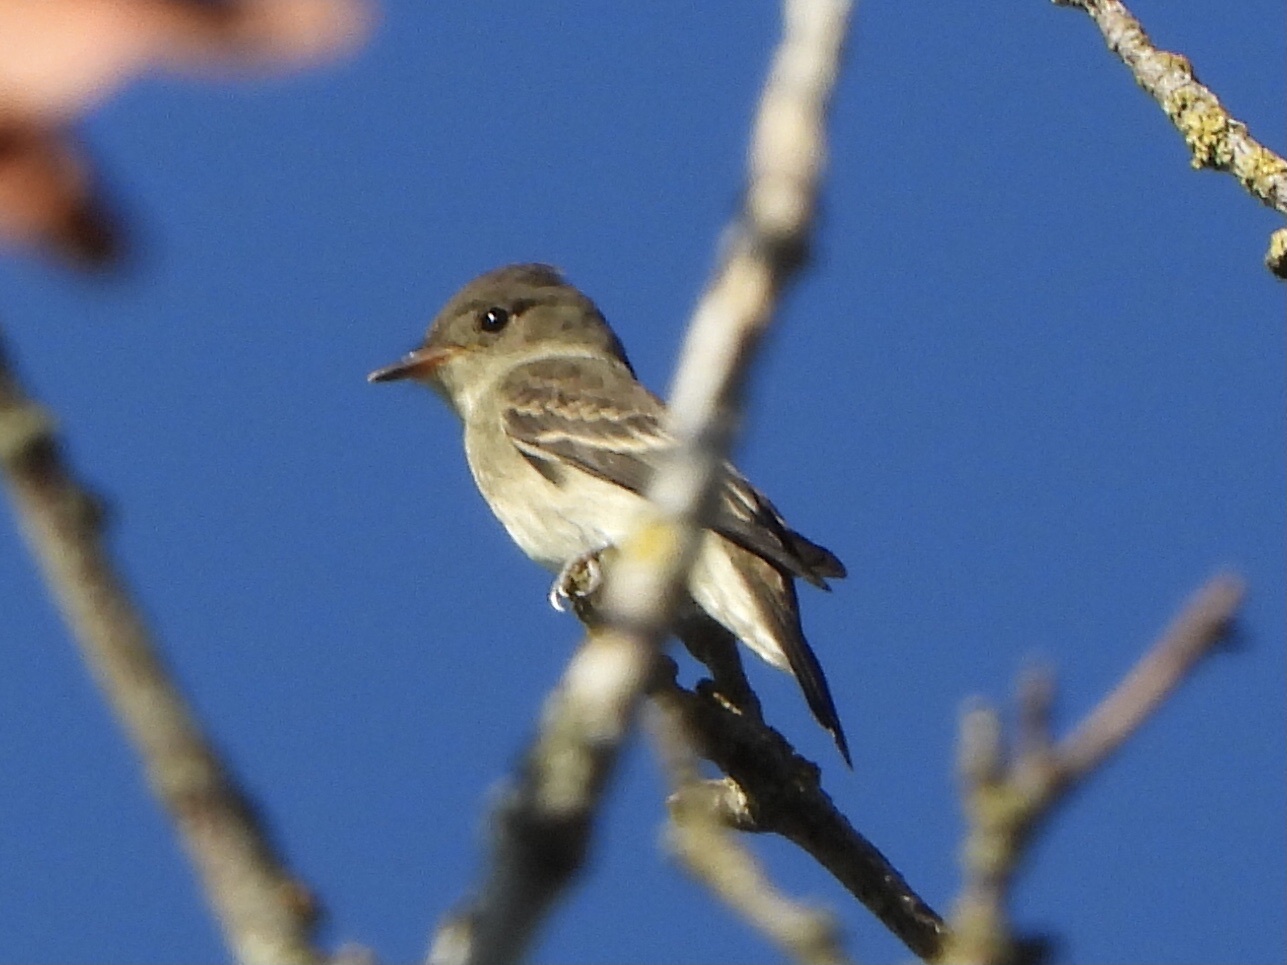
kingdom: Animalia
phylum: Chordata
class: Aves
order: Passeriformes
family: Tyrannidae
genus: Contopus
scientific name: Contopus sordidulus
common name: Western wood-pewee
